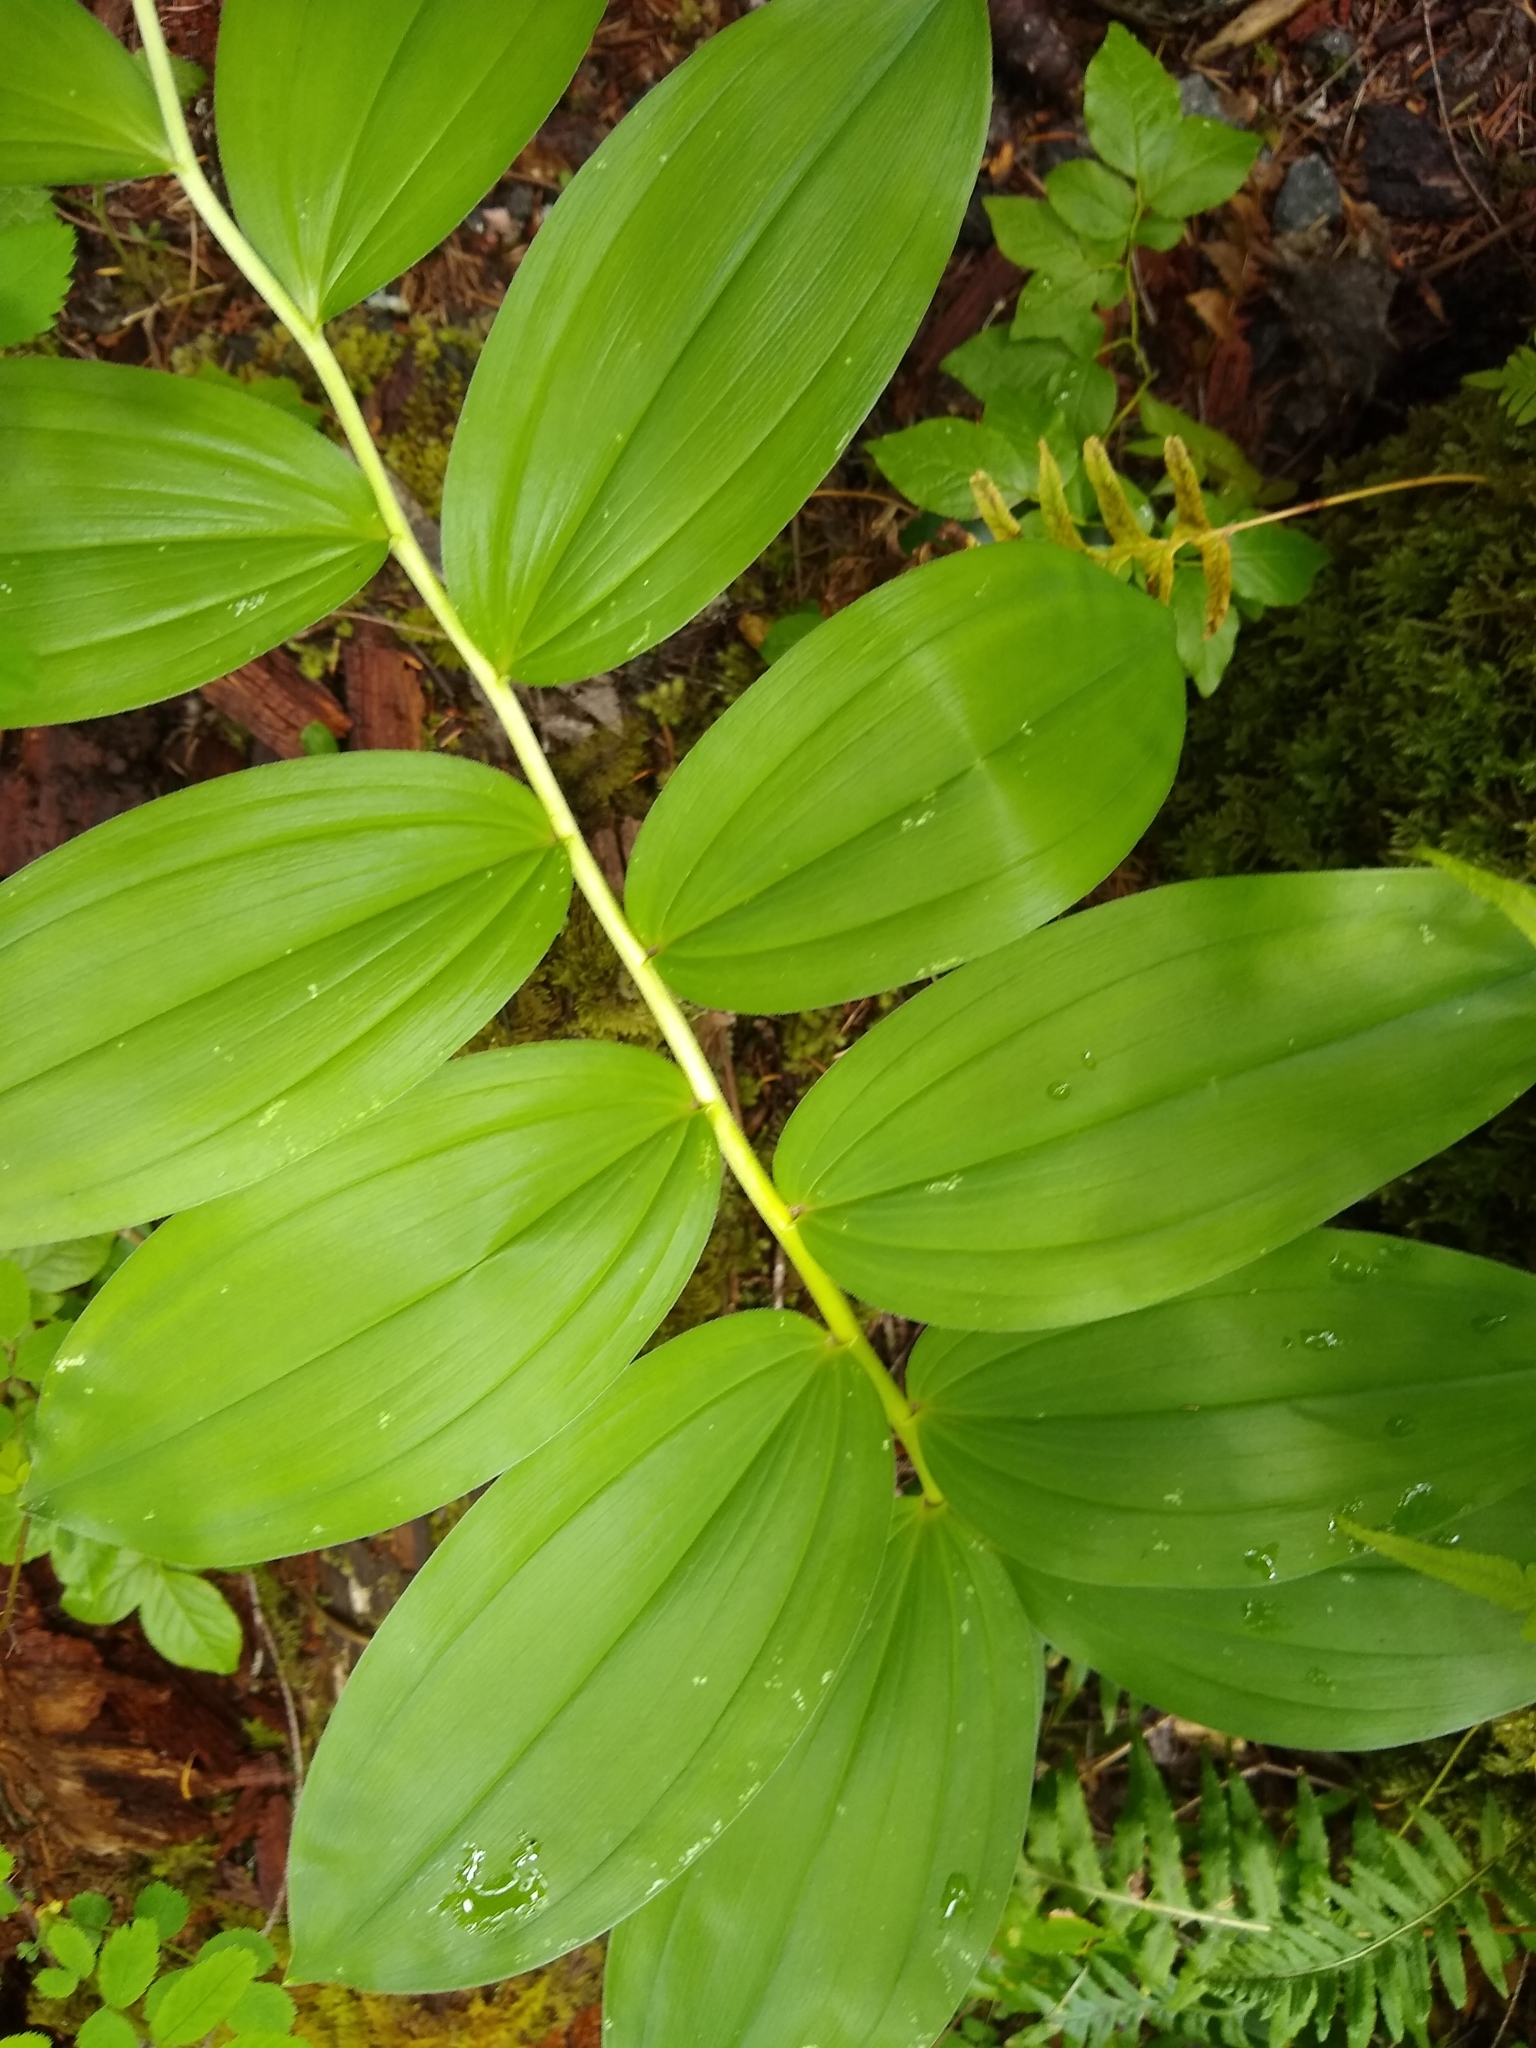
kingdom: Plantae
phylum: Tracheophyta
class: Liliopsida
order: Asparagales
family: Asparagaceae
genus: Maianthemum
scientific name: Maianthemum racemosum
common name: False spikenard
